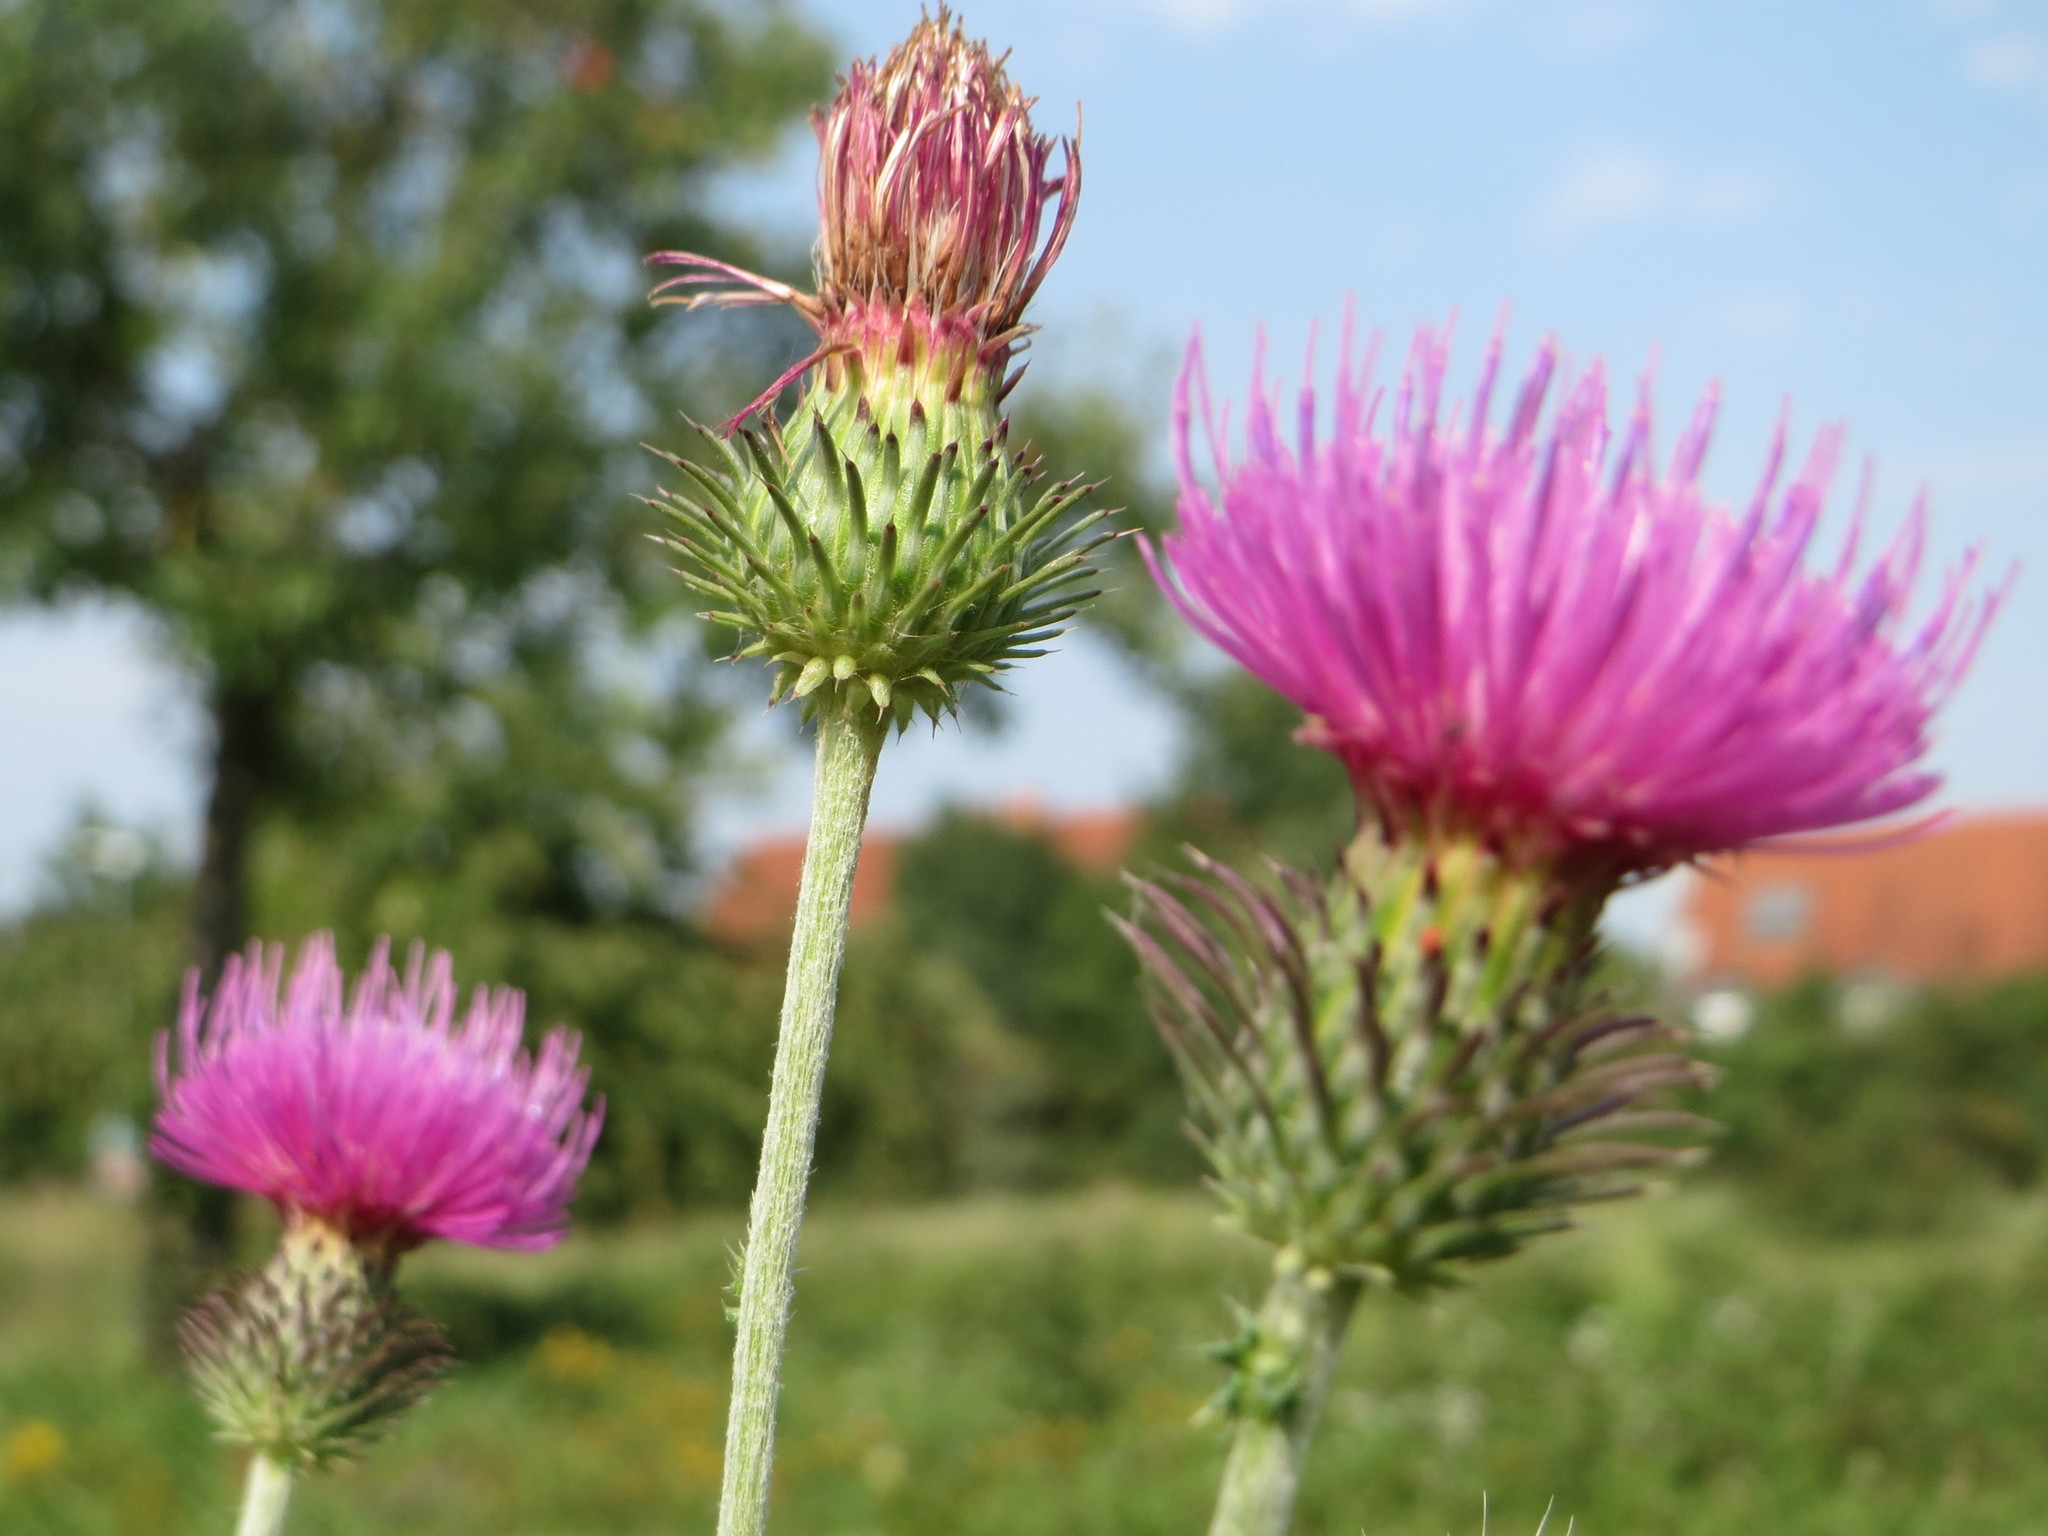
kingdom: Plantae
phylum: Tracheophyta
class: Magnoliopsida
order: Asterales
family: Asteraceae
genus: Carduus
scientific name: Carduus acanthoides
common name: Plumeless thistle
